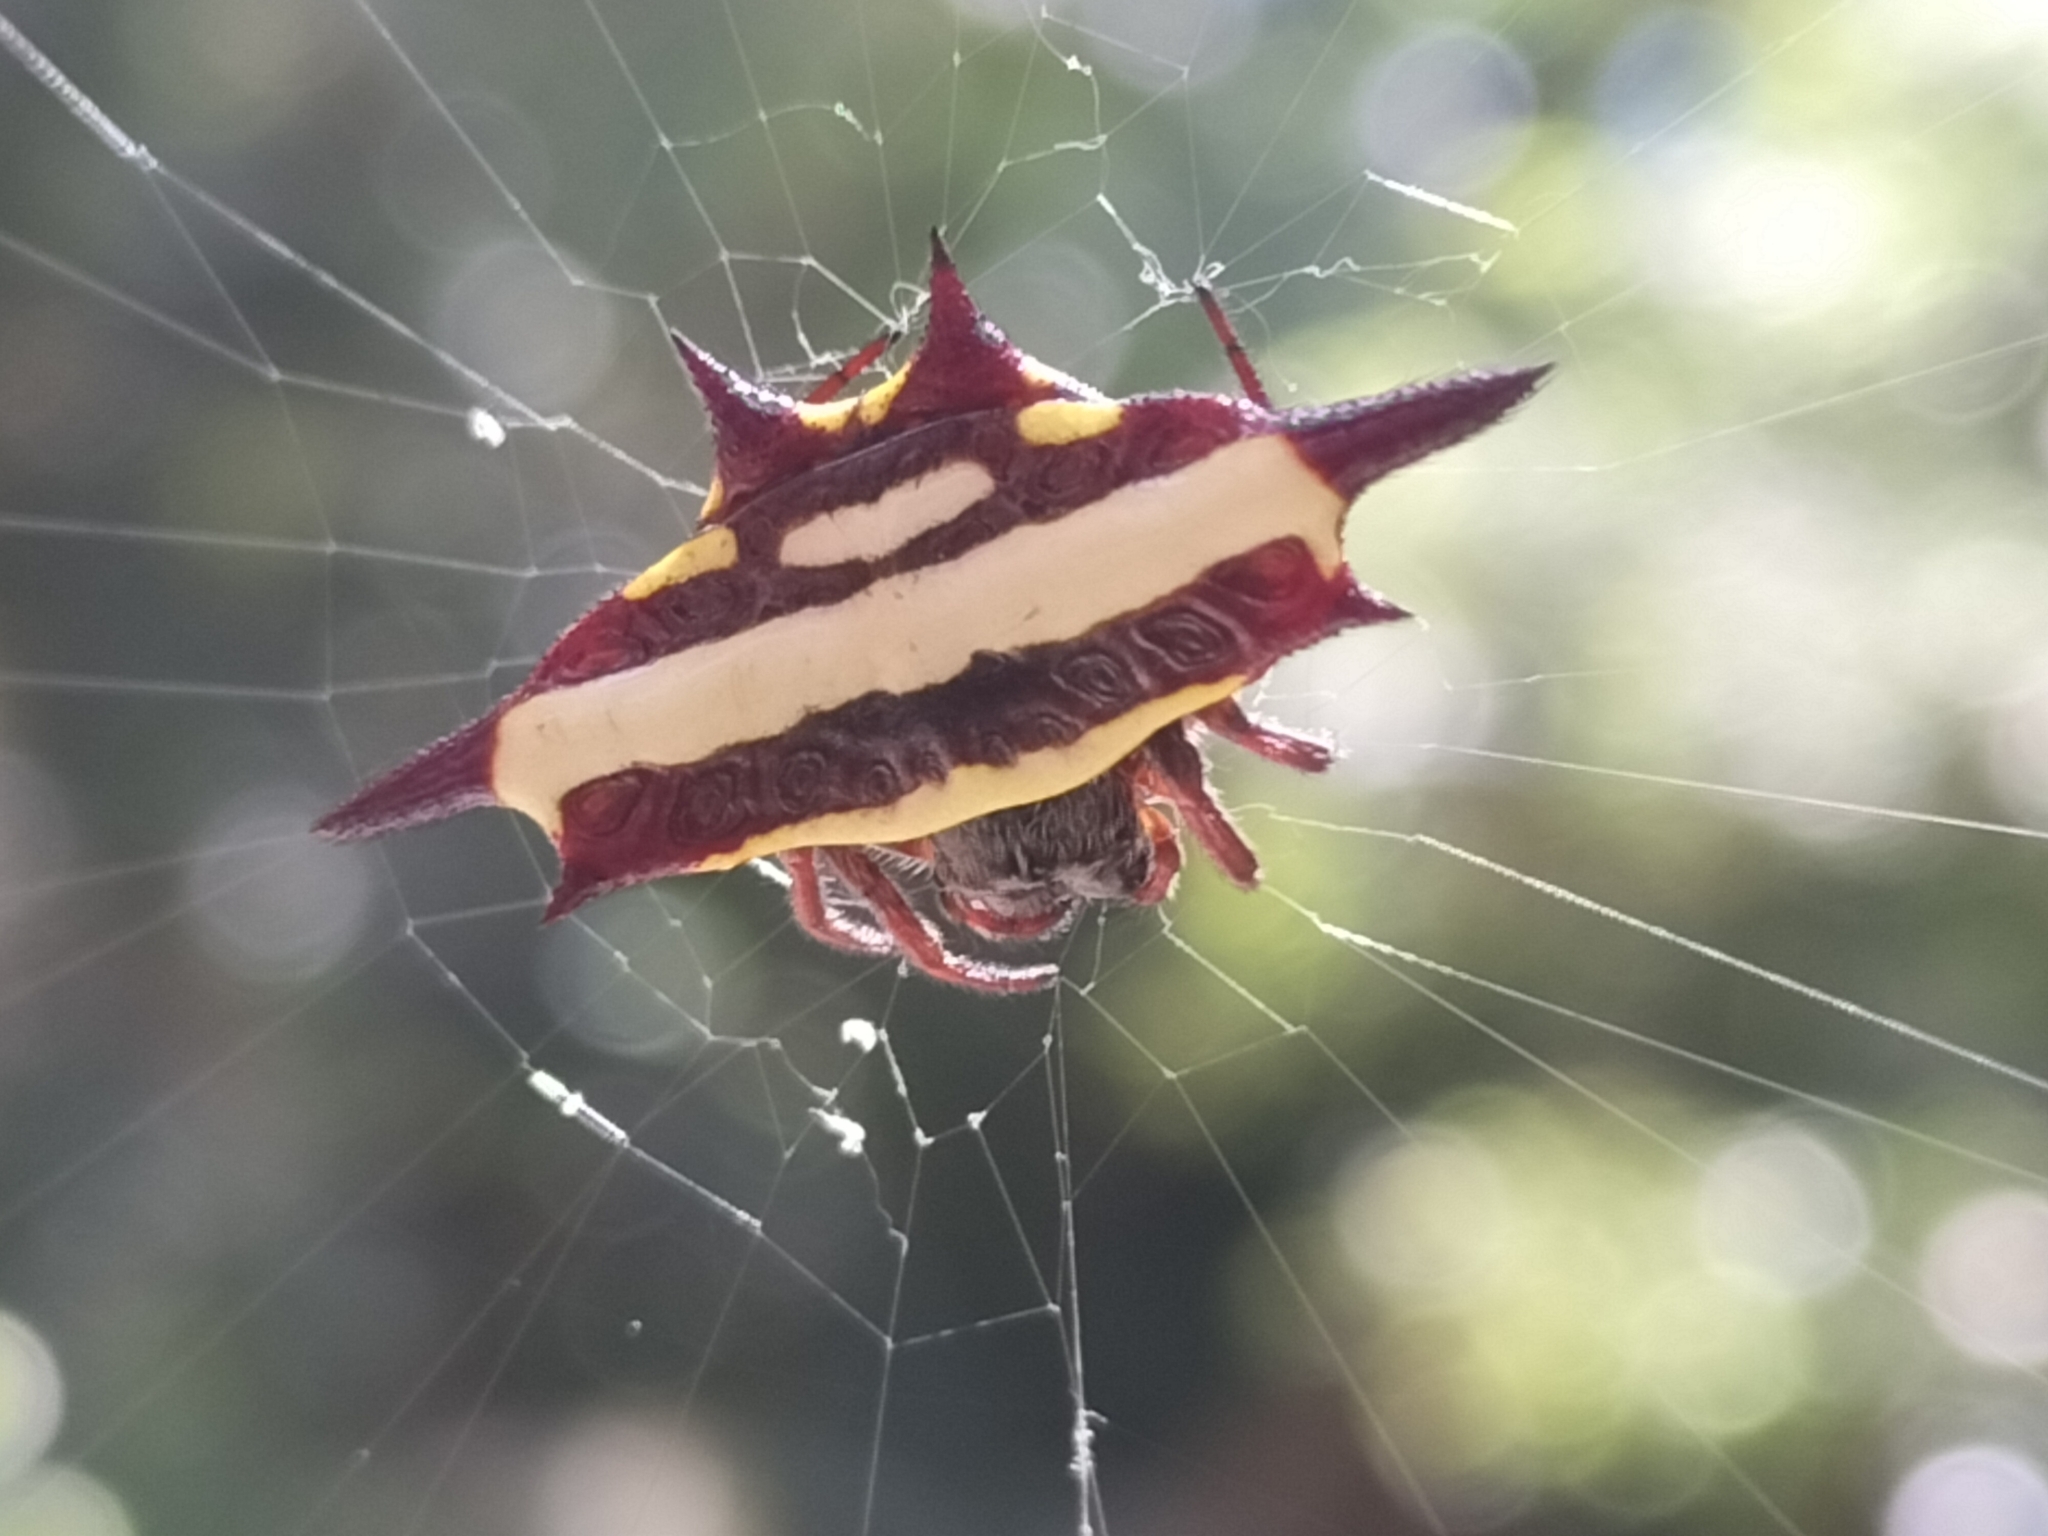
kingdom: Animalia
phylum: Arthropoda
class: Arachnida
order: Araneae
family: Araneidae
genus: Gasteracantha
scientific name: Gasteracantha fornicata
